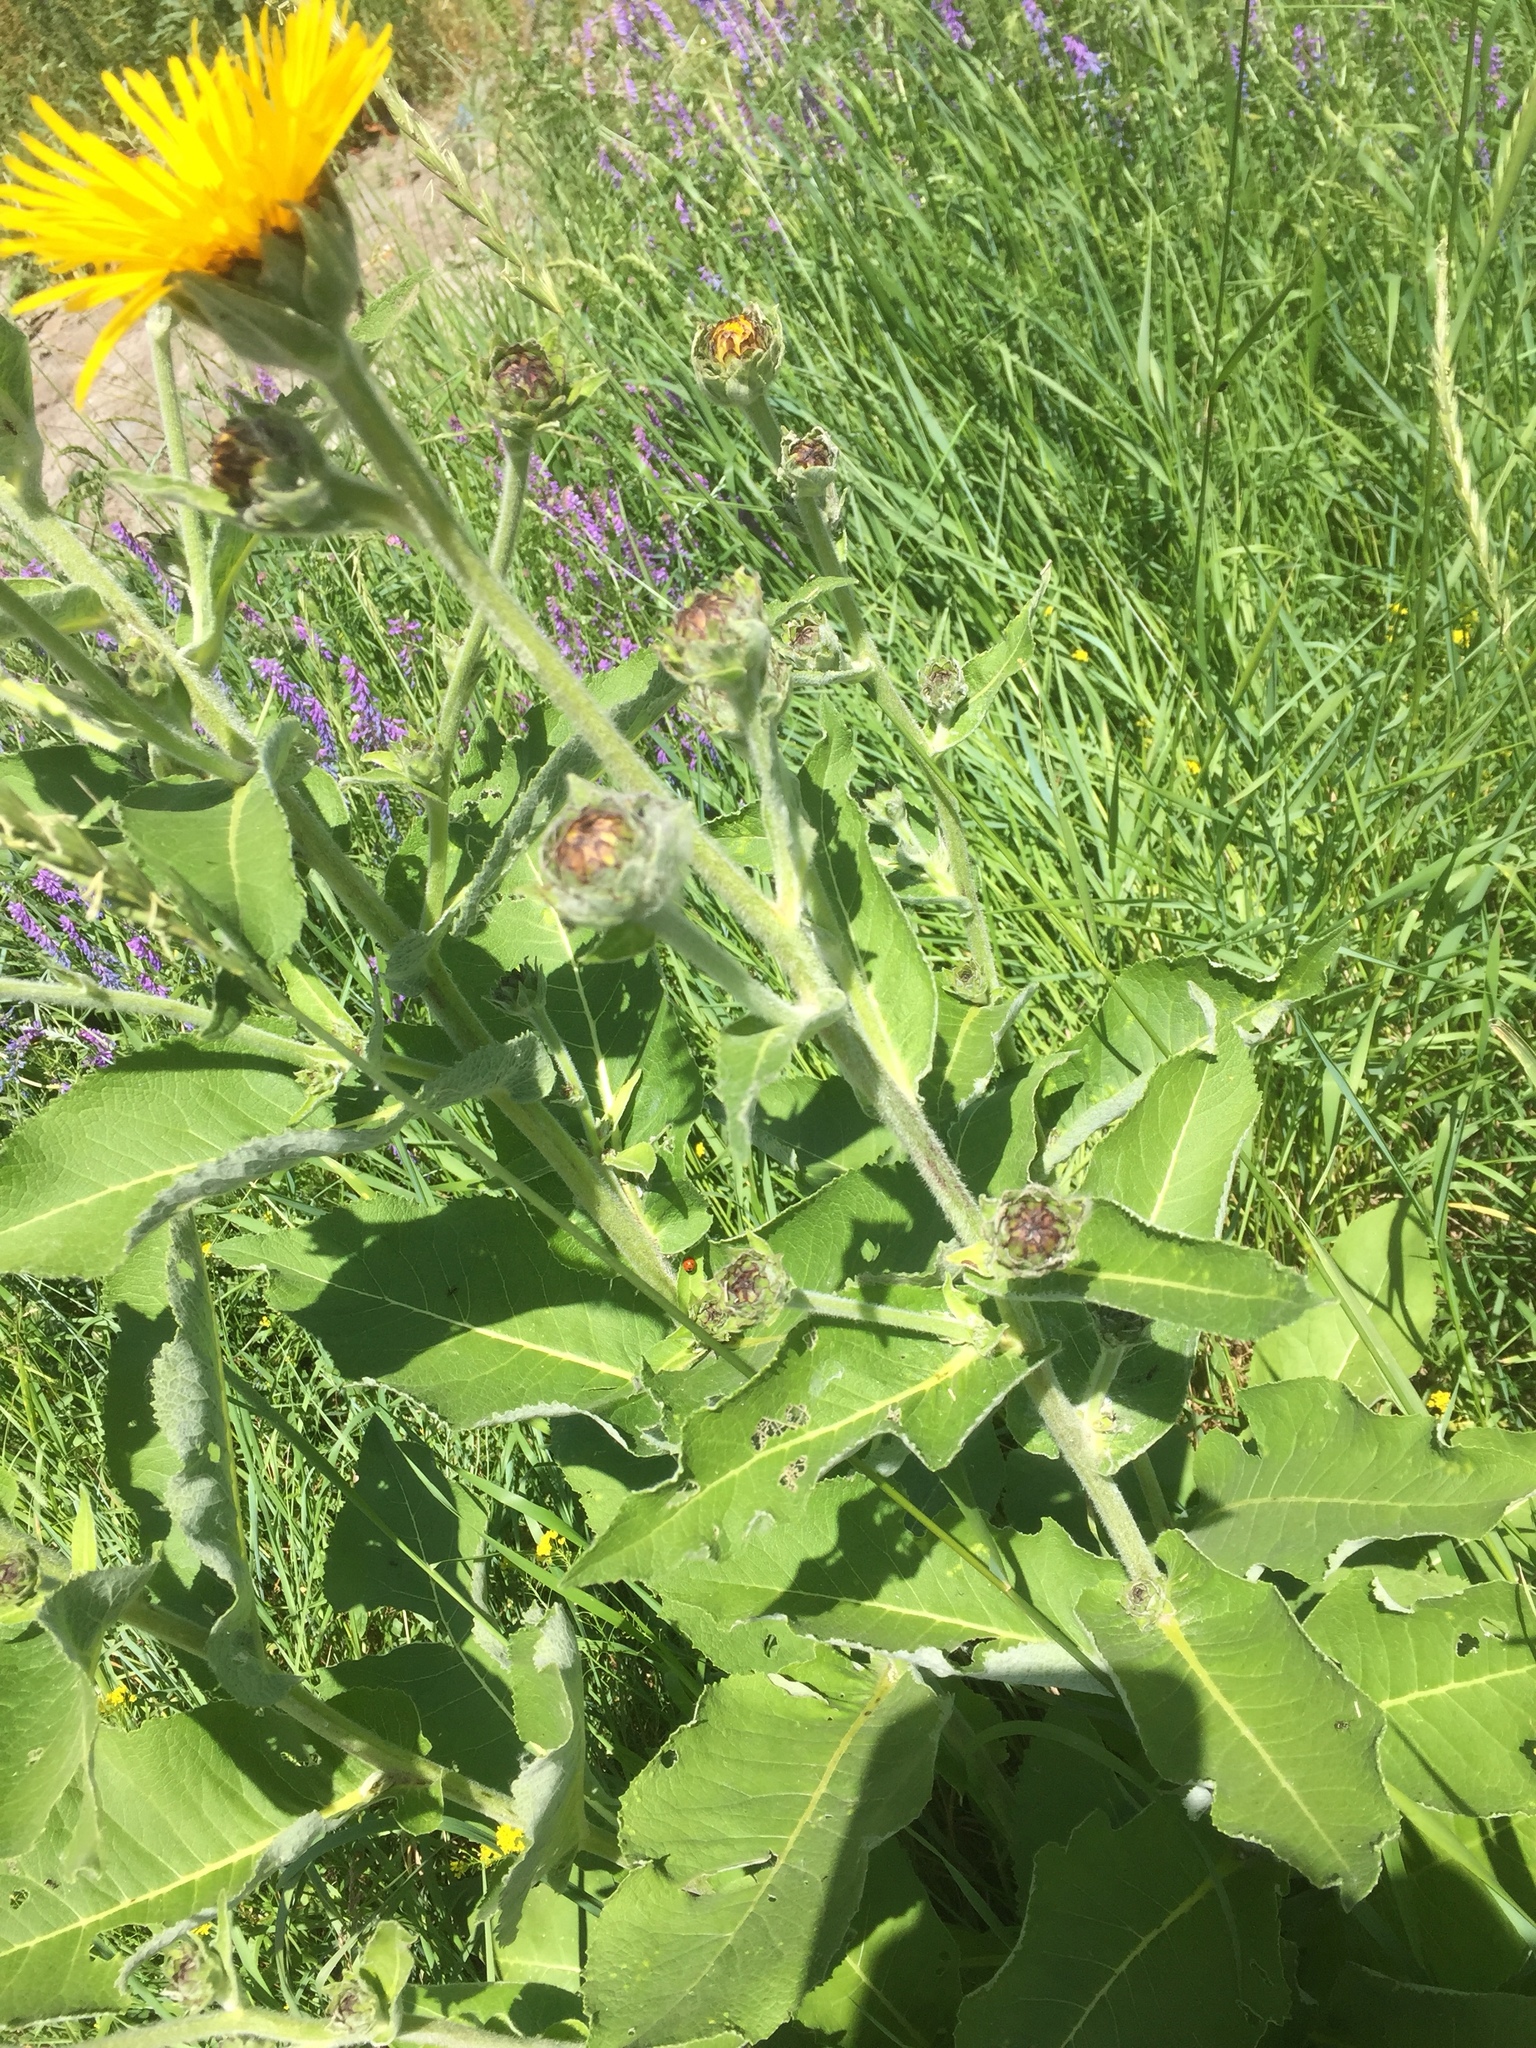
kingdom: Plantae
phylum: Tracheophyta
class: Magnoliopsida
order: Asterales
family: Asteraceae
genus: Inula
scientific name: Inula helenium
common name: Elecampane
